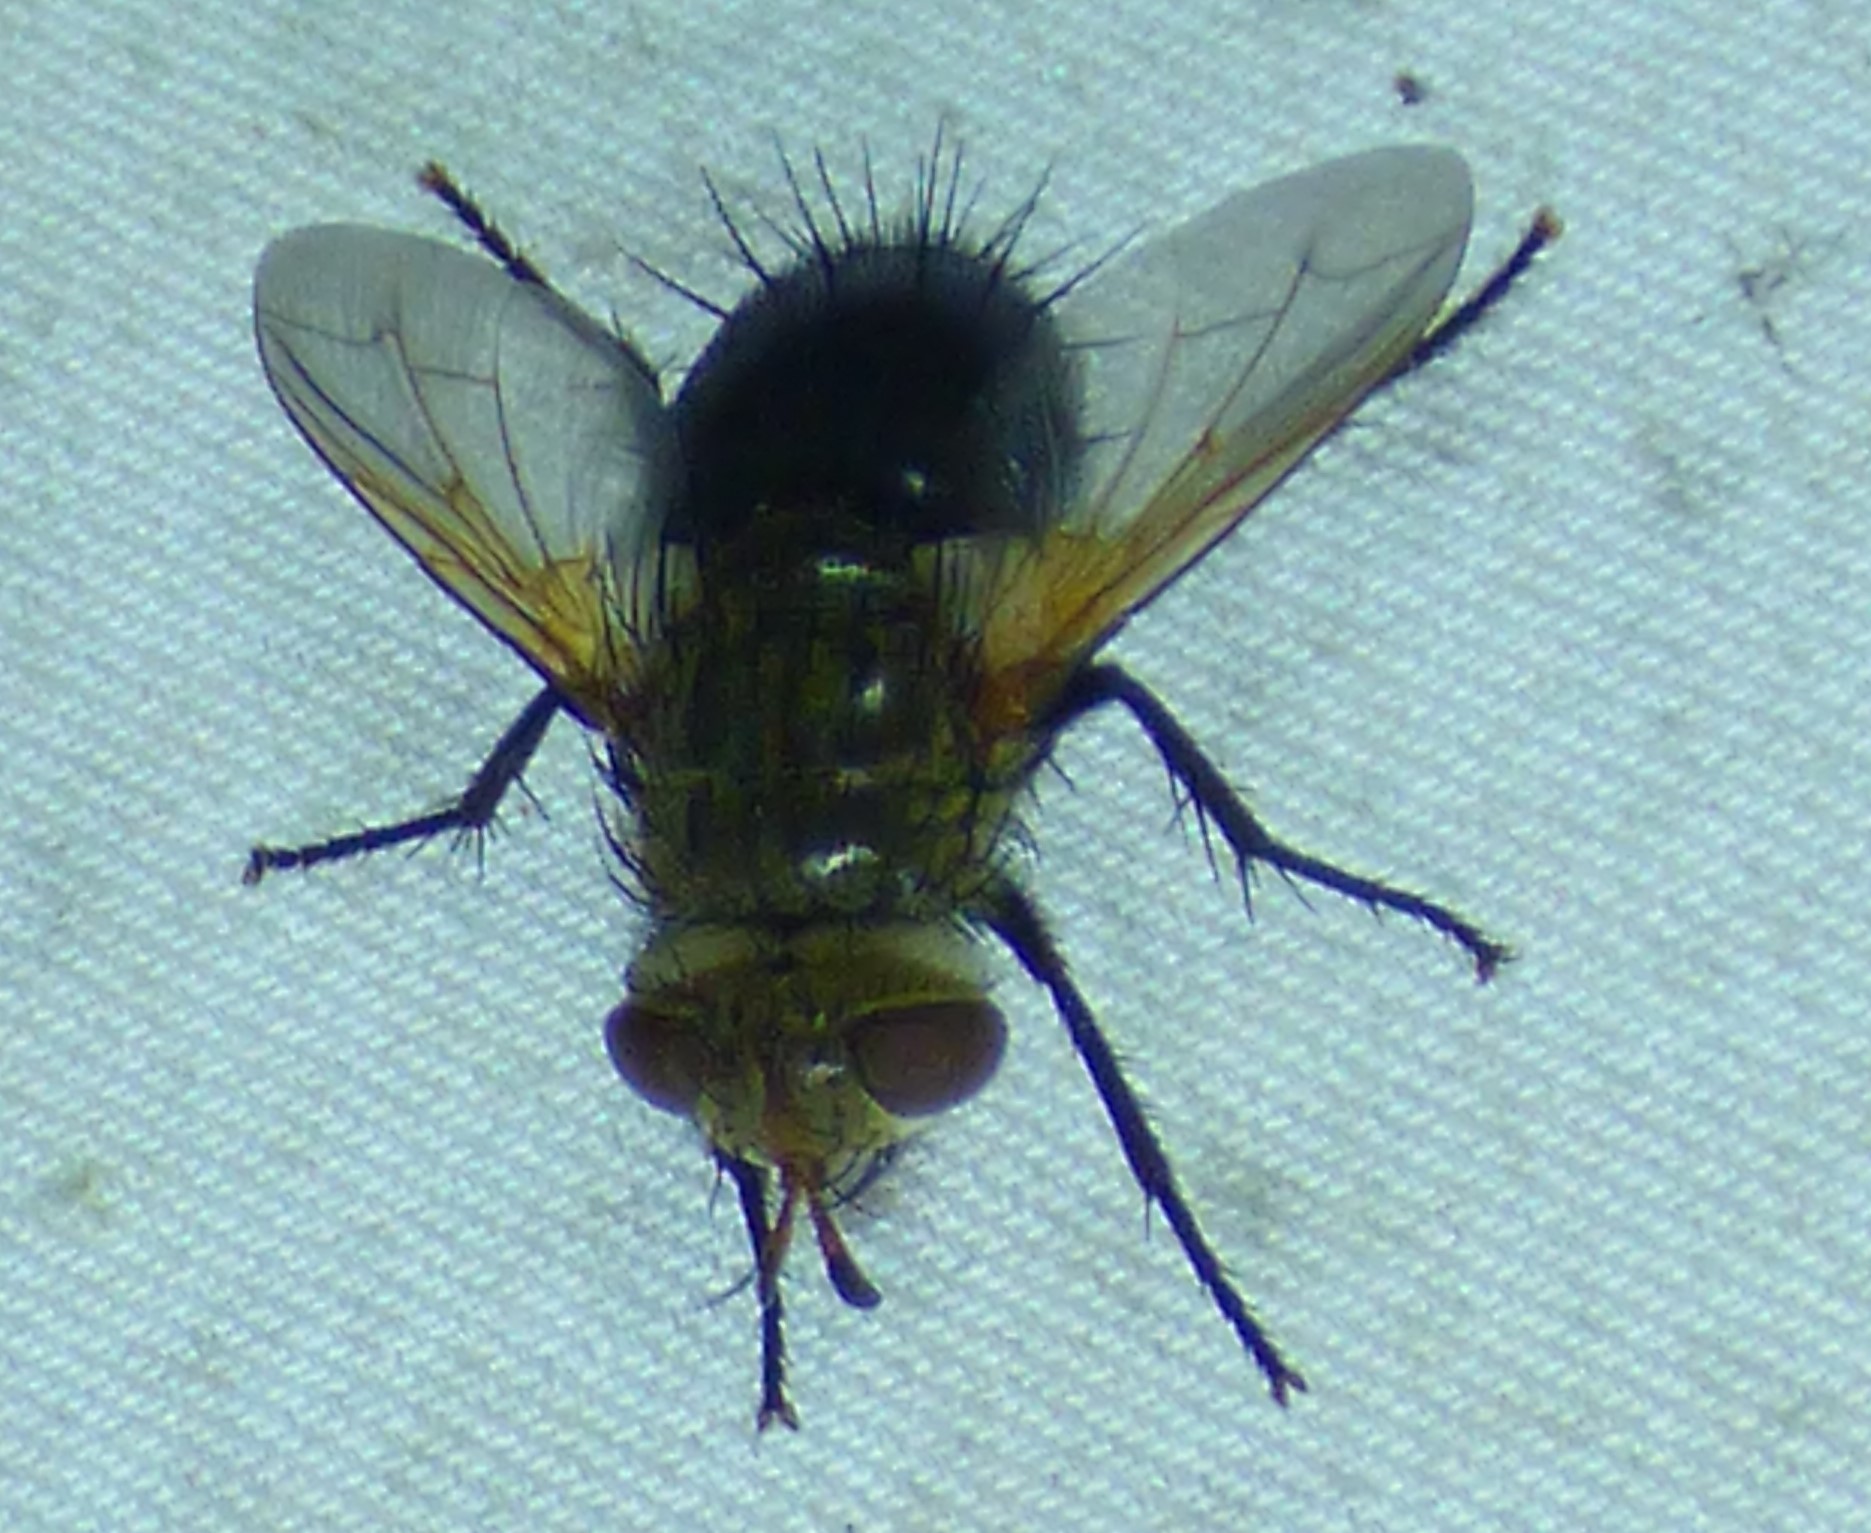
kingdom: Animalia
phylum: Arthropoda
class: Insecta
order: Diptera
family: Tachinidae
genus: Archytas
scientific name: Archytas
